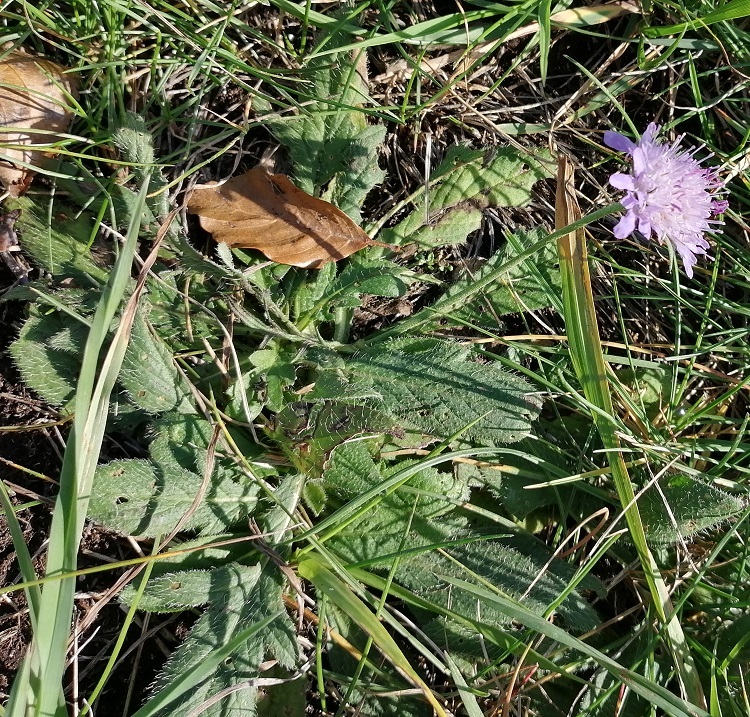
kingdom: Plantae
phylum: Tracheophyta
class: Magnoliopsida
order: Dipsacales
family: Caprifoliaceae
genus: Knautia
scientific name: Knautia arvensis
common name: Field scabiosa
